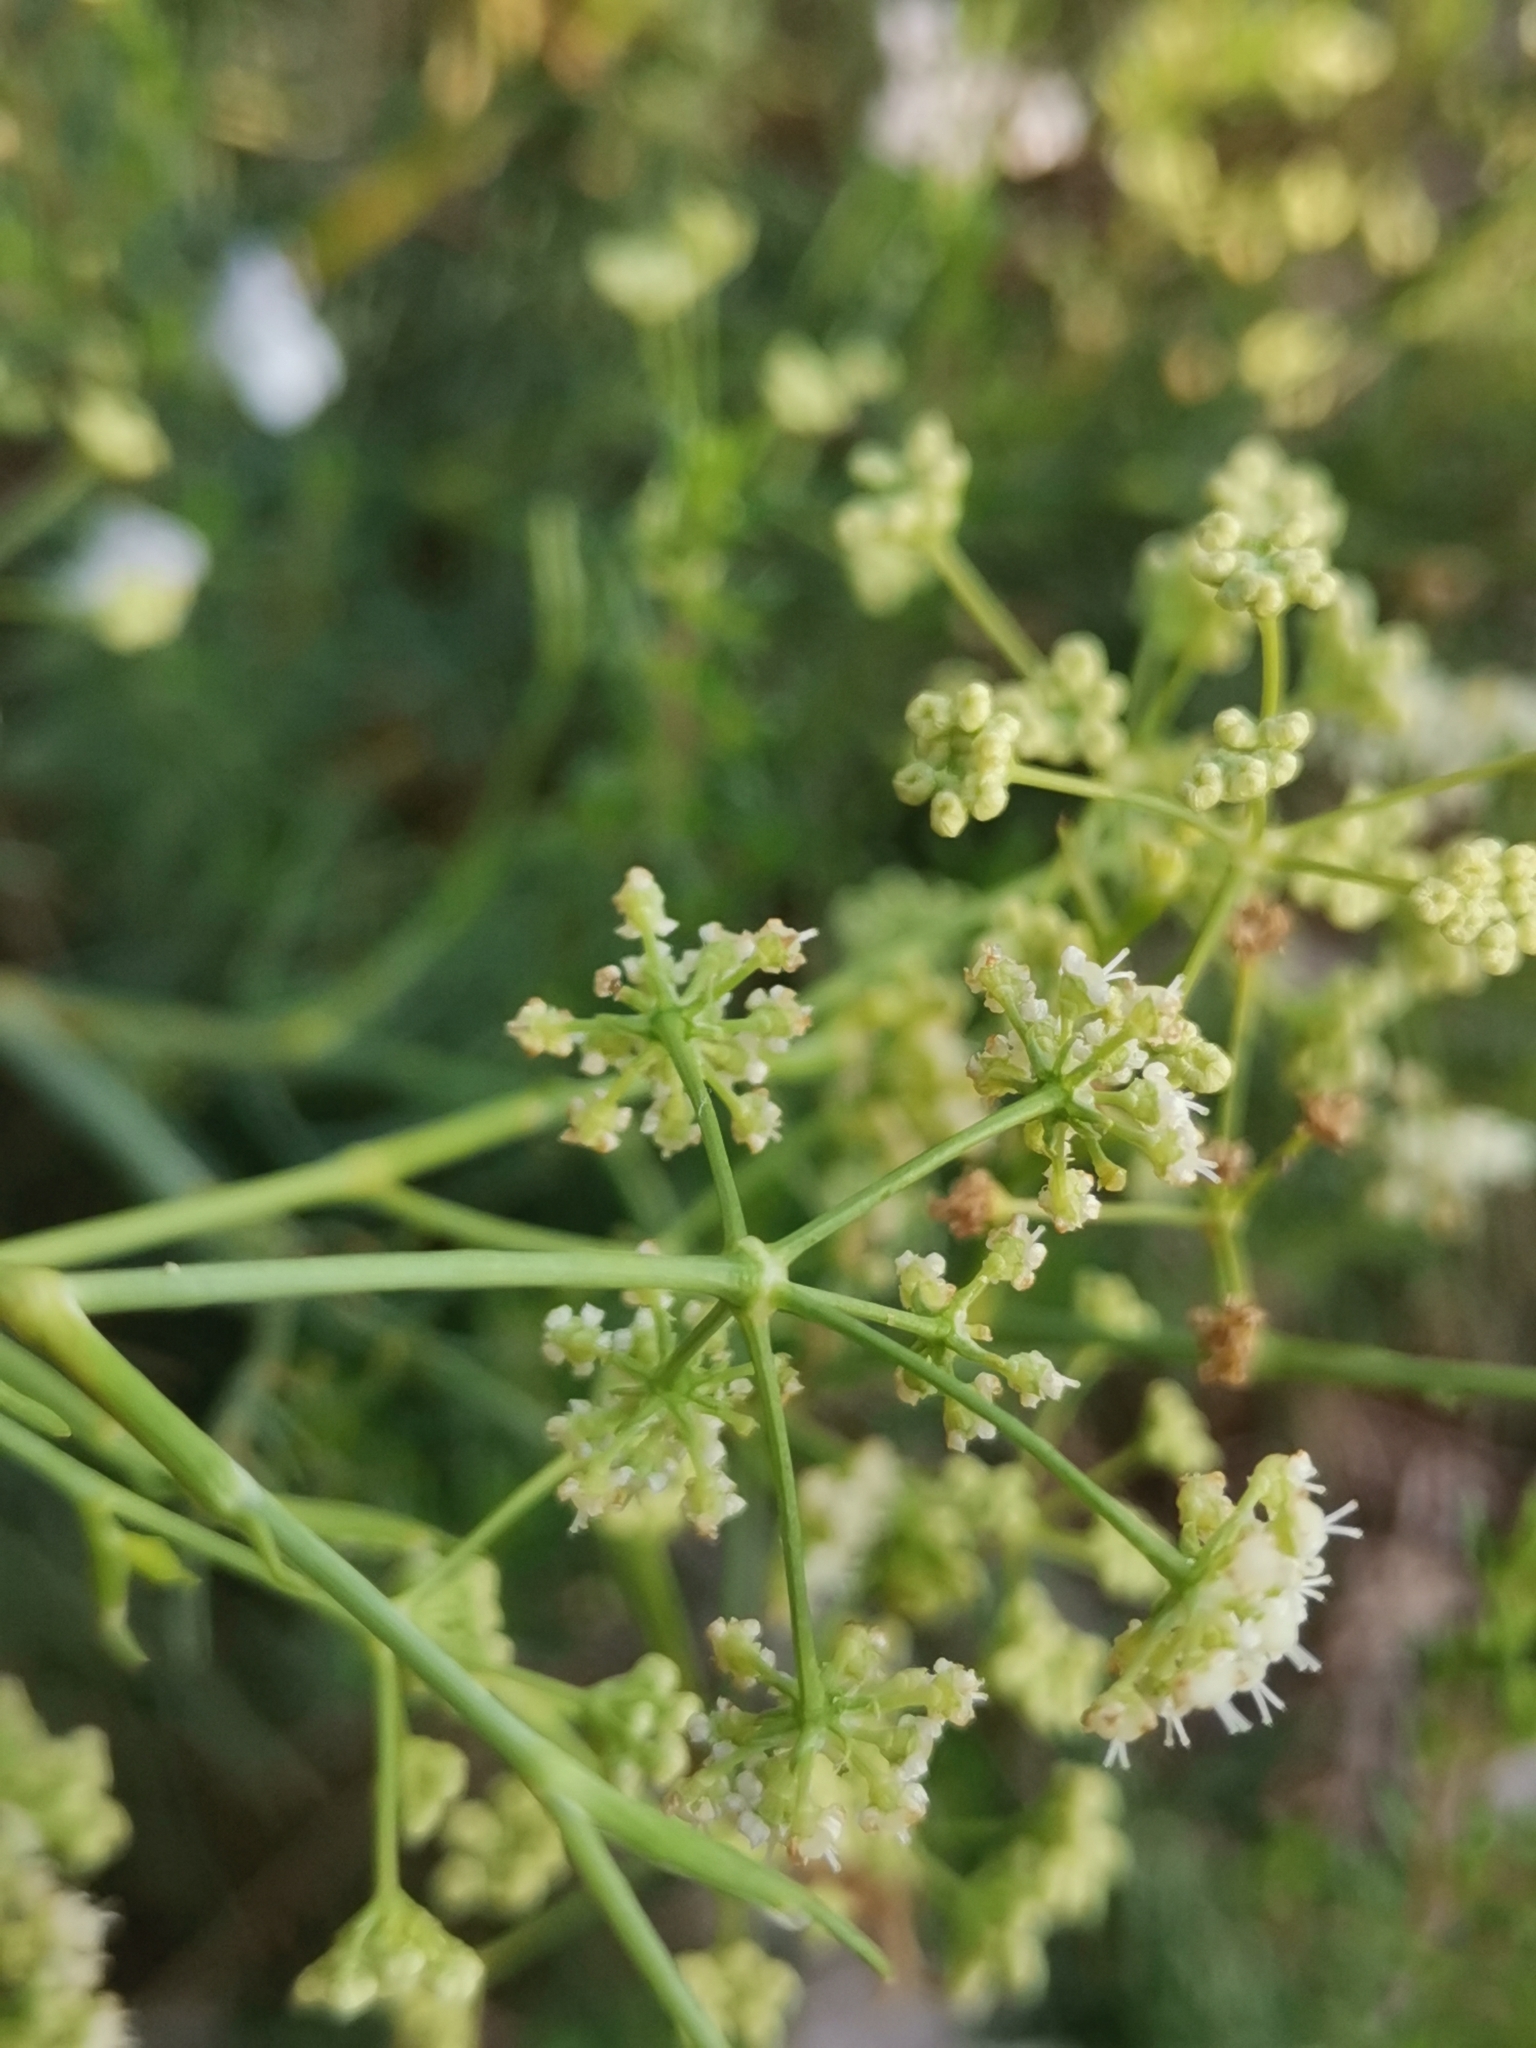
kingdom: Plantae
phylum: Tracheophyta
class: Magnoliopsida
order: Apiales
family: Apiaceae
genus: Trinia
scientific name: Trinia glauca
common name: Honewort
